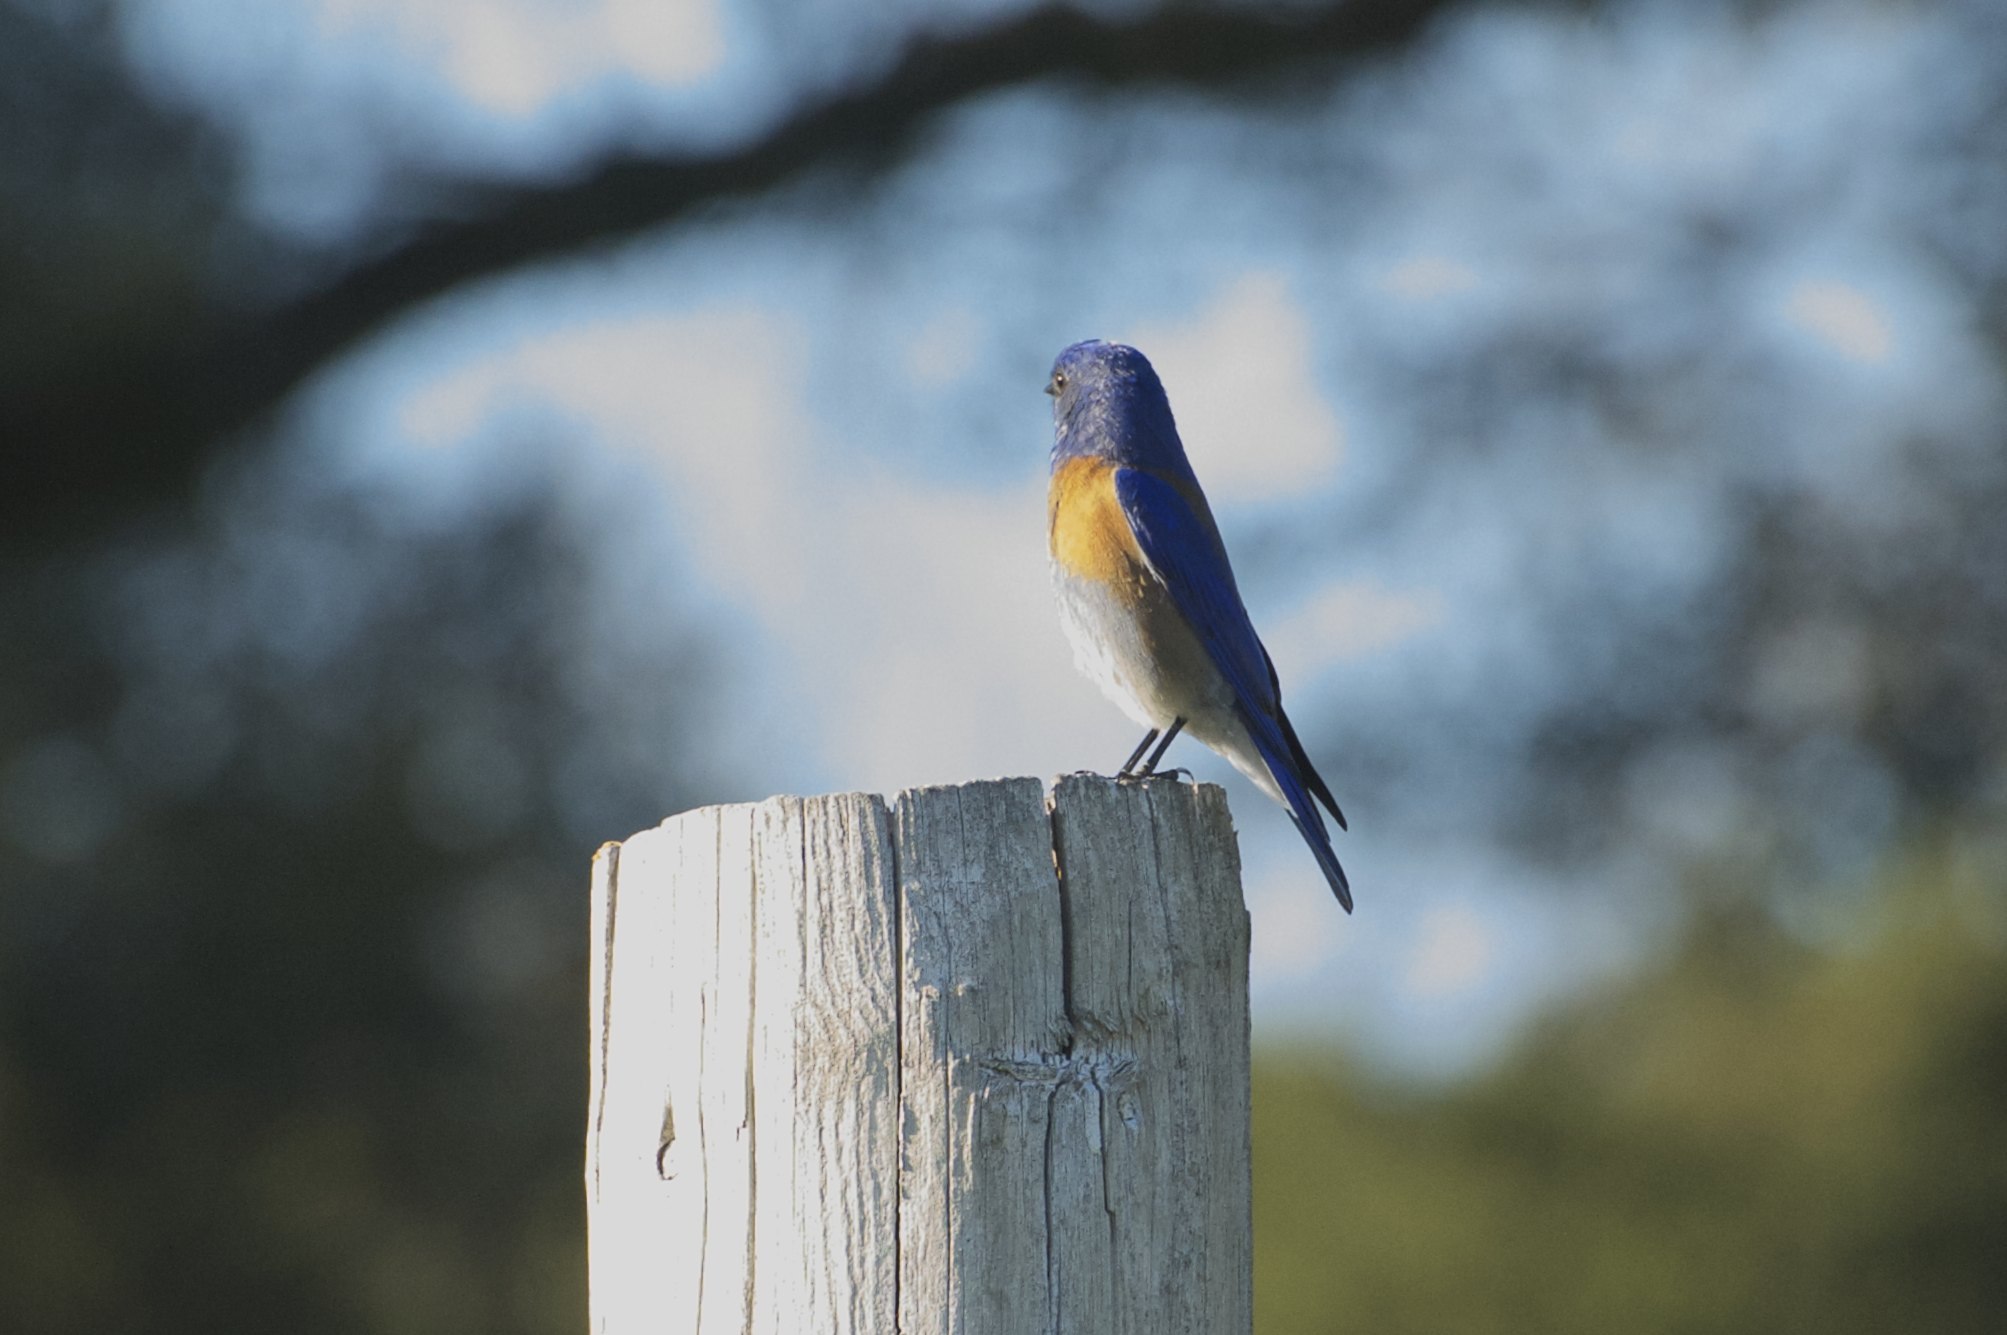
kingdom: Animalia
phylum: Chordata
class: Aves
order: Passeriformes
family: Turdidae
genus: Sialia
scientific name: Sialia mexicana
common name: Western bluebird
